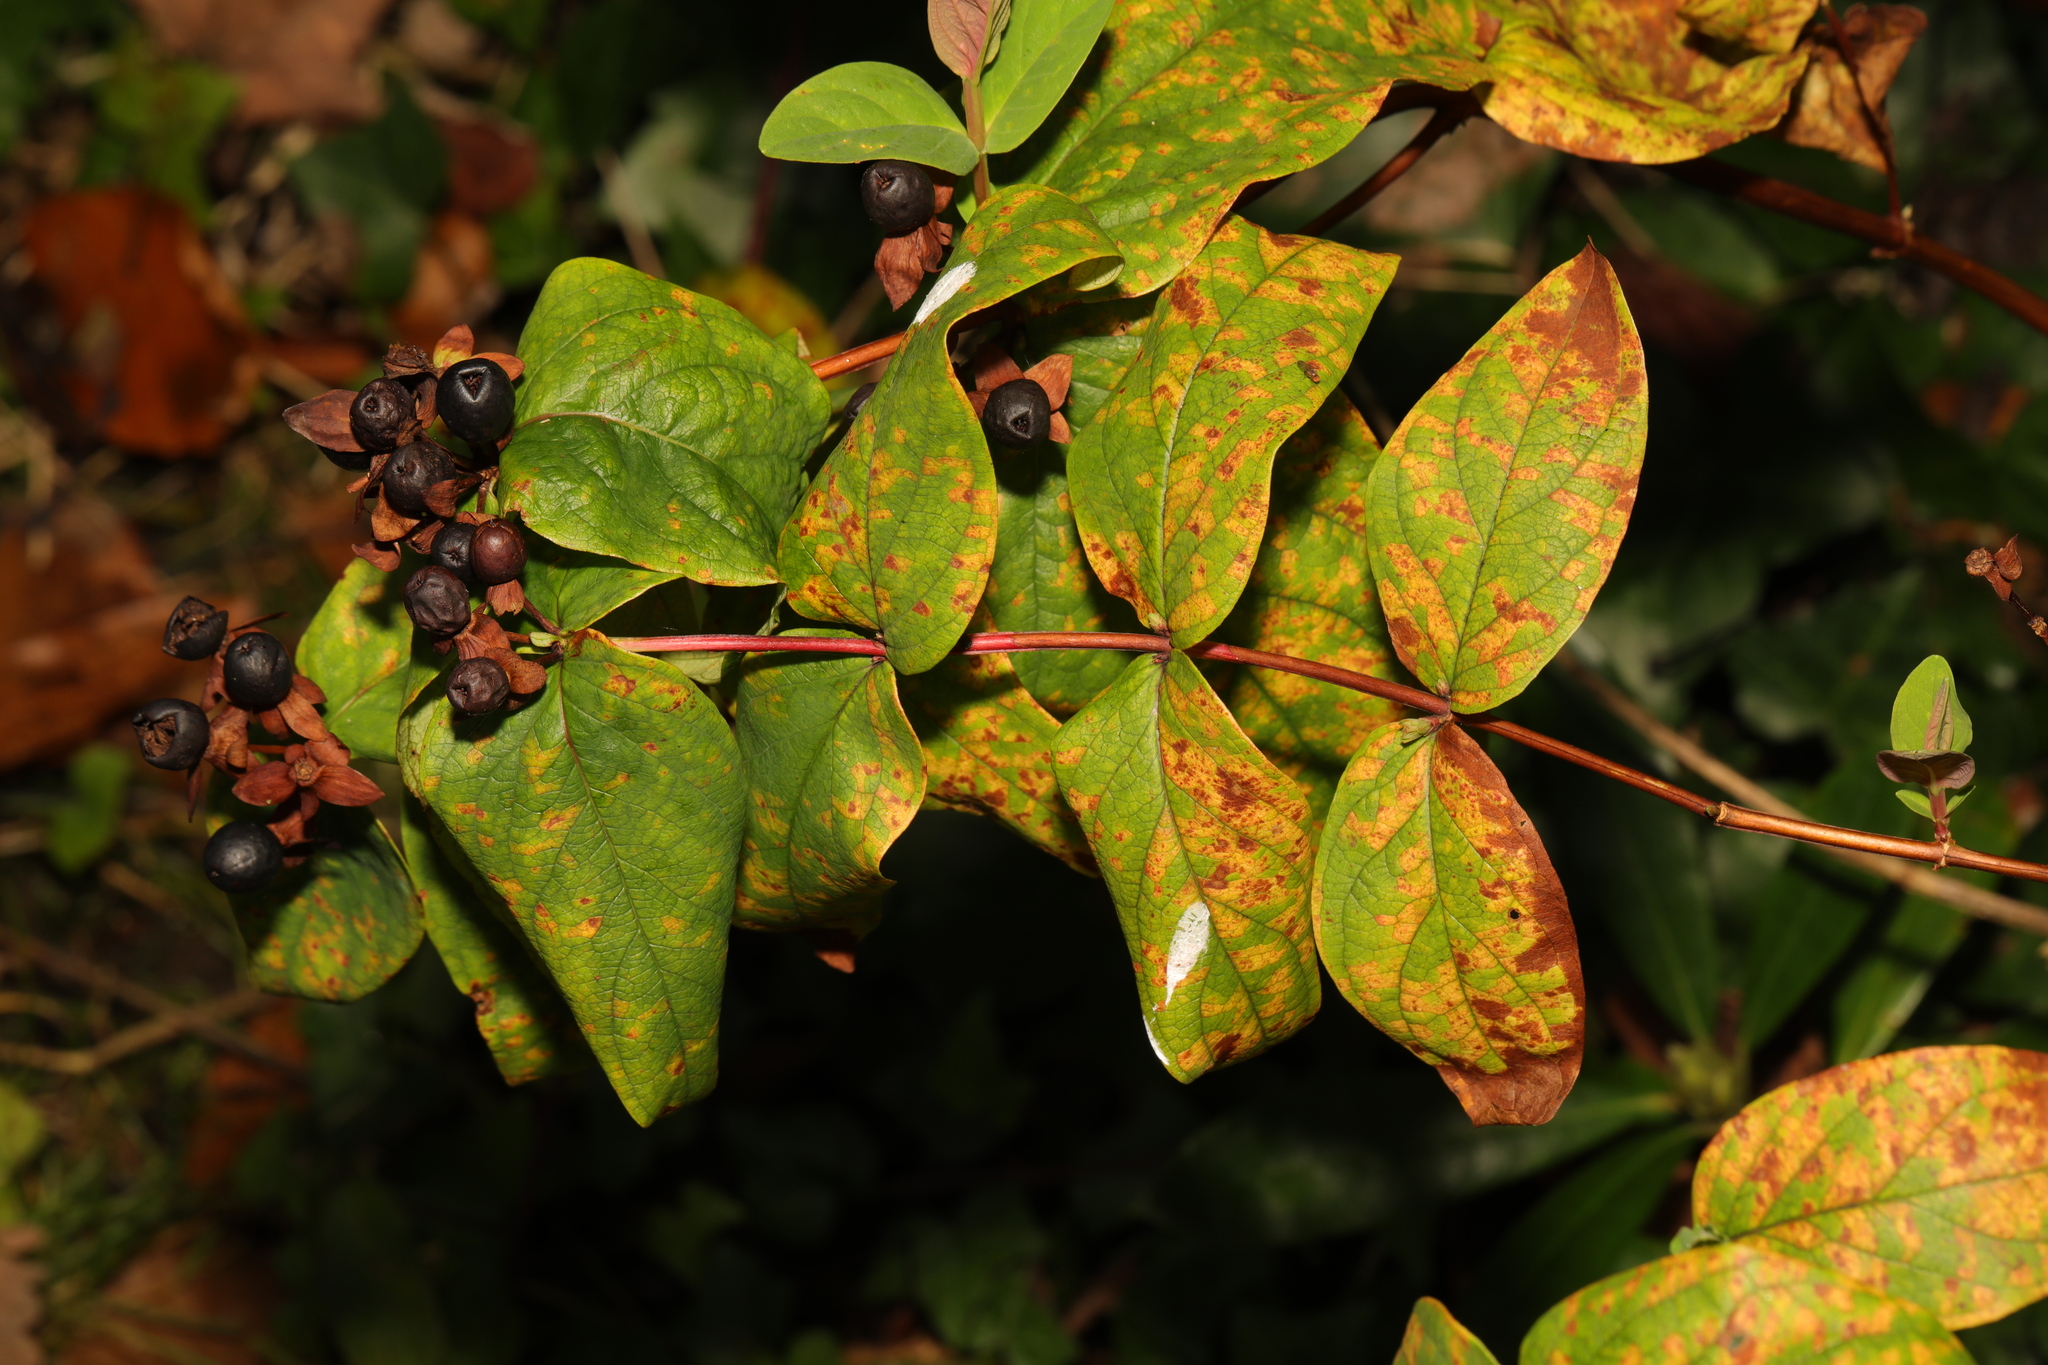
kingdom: Plantae
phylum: Tracheophyta
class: Magnoliopsida
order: Malpighiales
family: Hypericaceae
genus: Hypericum
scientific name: Hypericum androsaemum
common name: Sweet-amber
